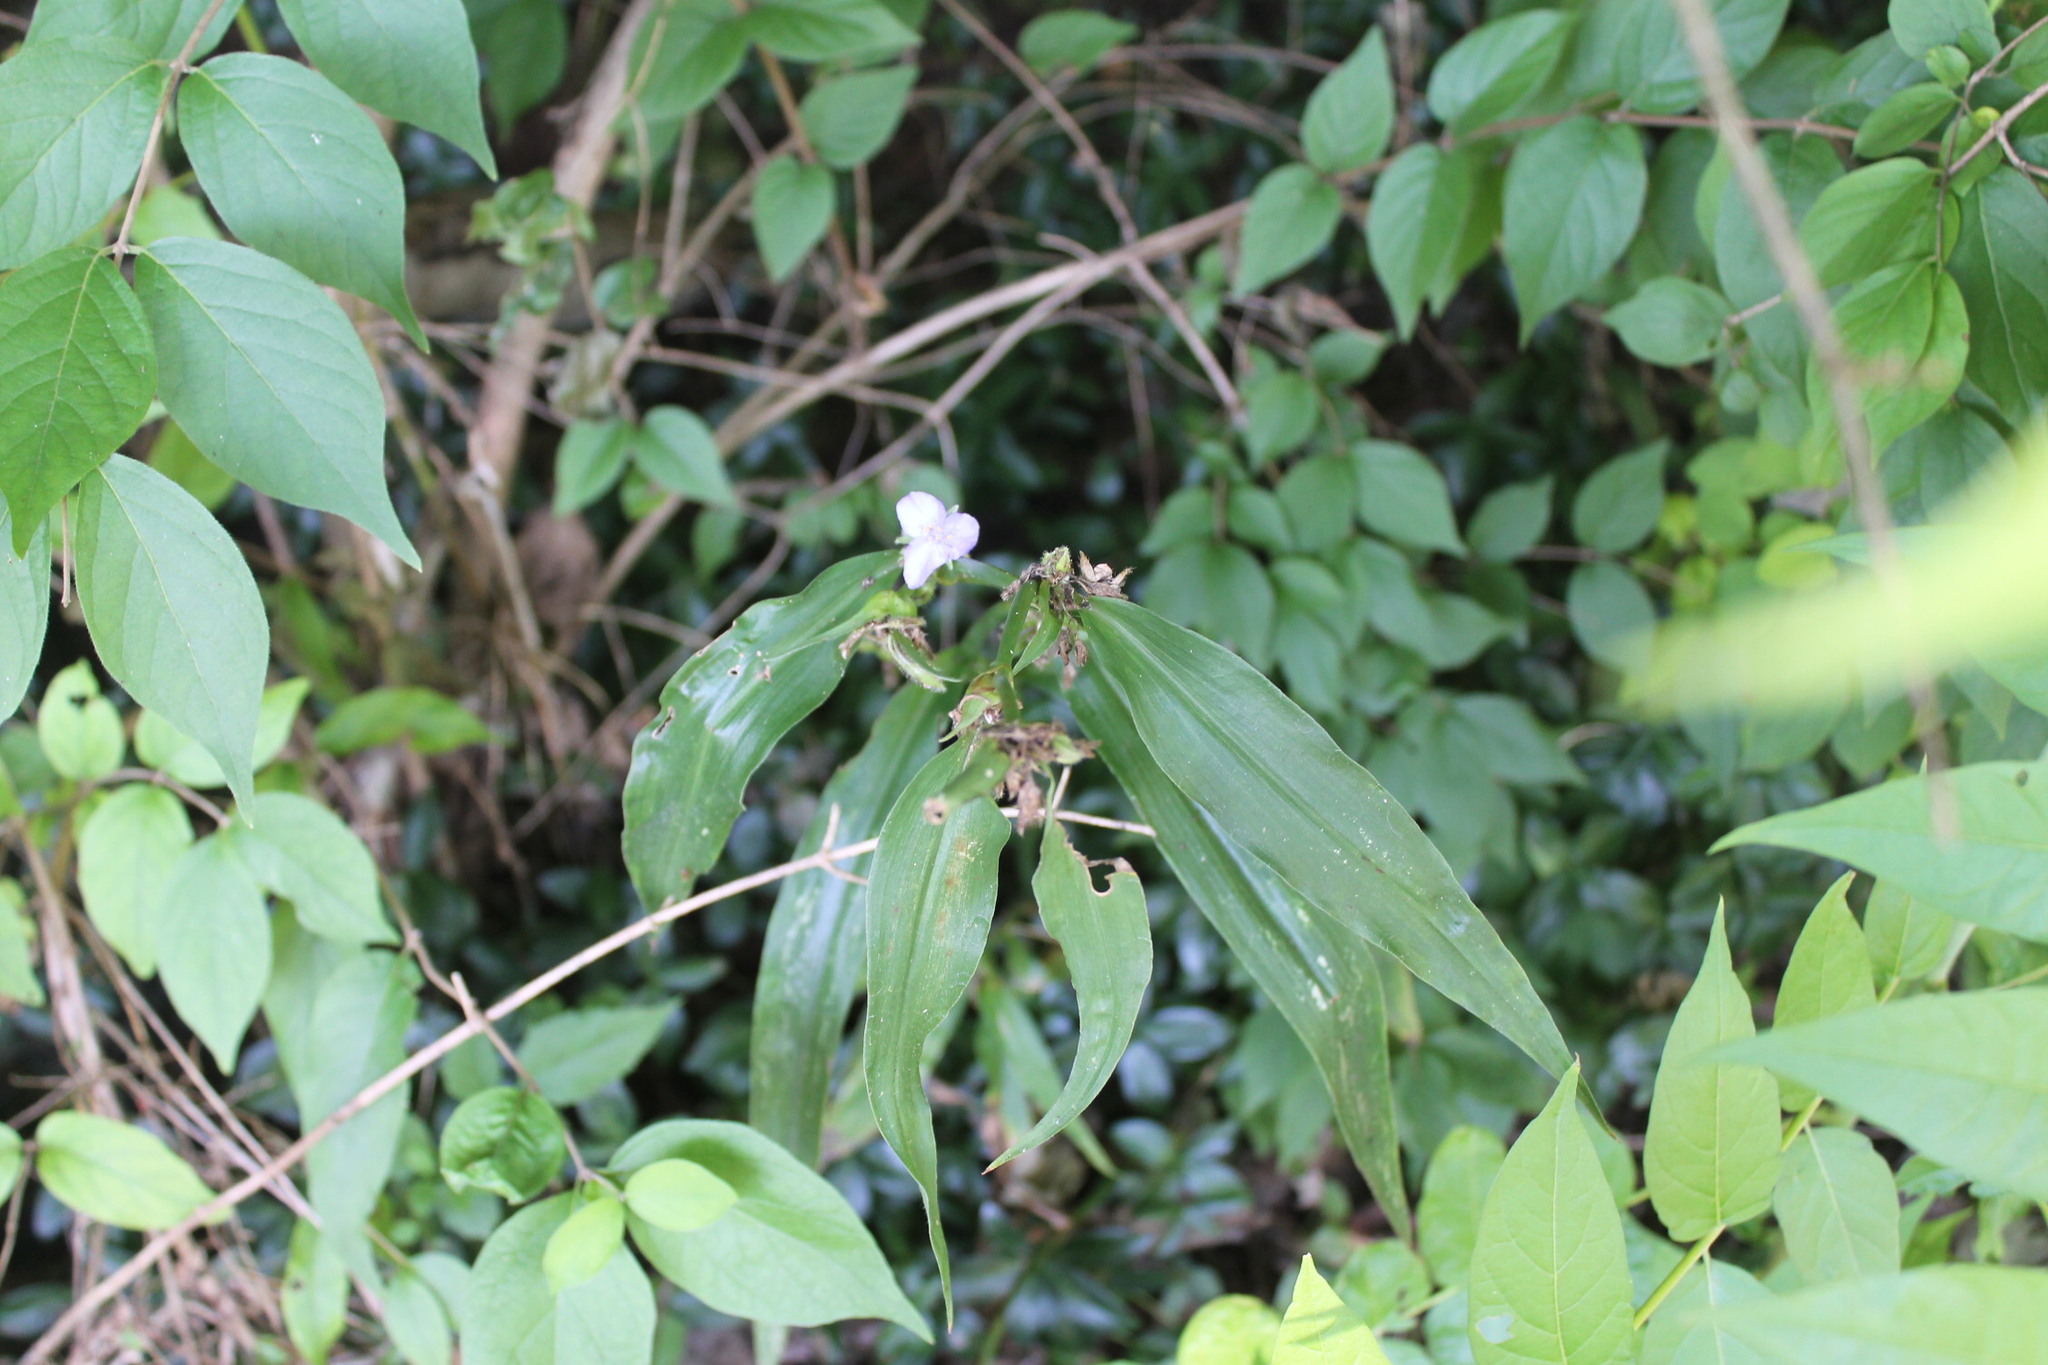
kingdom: Plantae
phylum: Tracheophyta
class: Liliopsida
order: Commelinales
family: Commelinaceae
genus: Tradescantia
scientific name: Tradescantia subaspera
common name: Wide-leaf spiderwort
